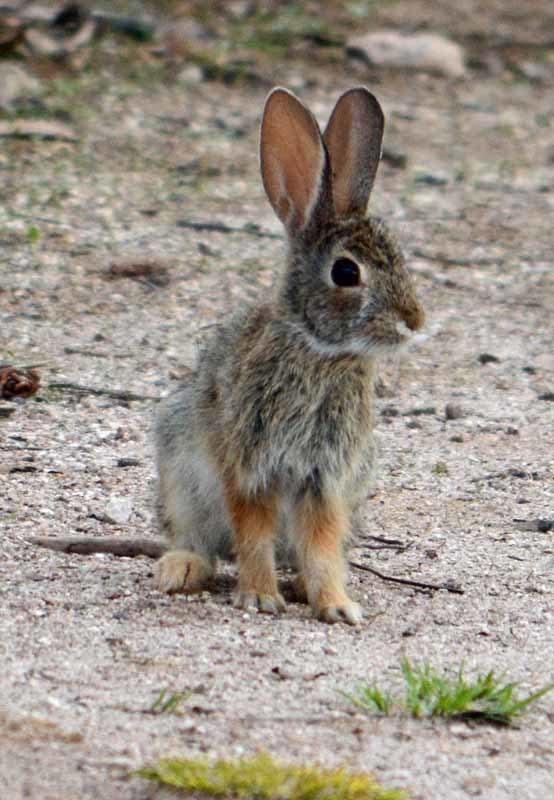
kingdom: Animalia
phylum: Chordata
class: Mammalia
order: Lagomorpha
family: Leporidae
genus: Sylvilagus
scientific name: Sylvilagus
